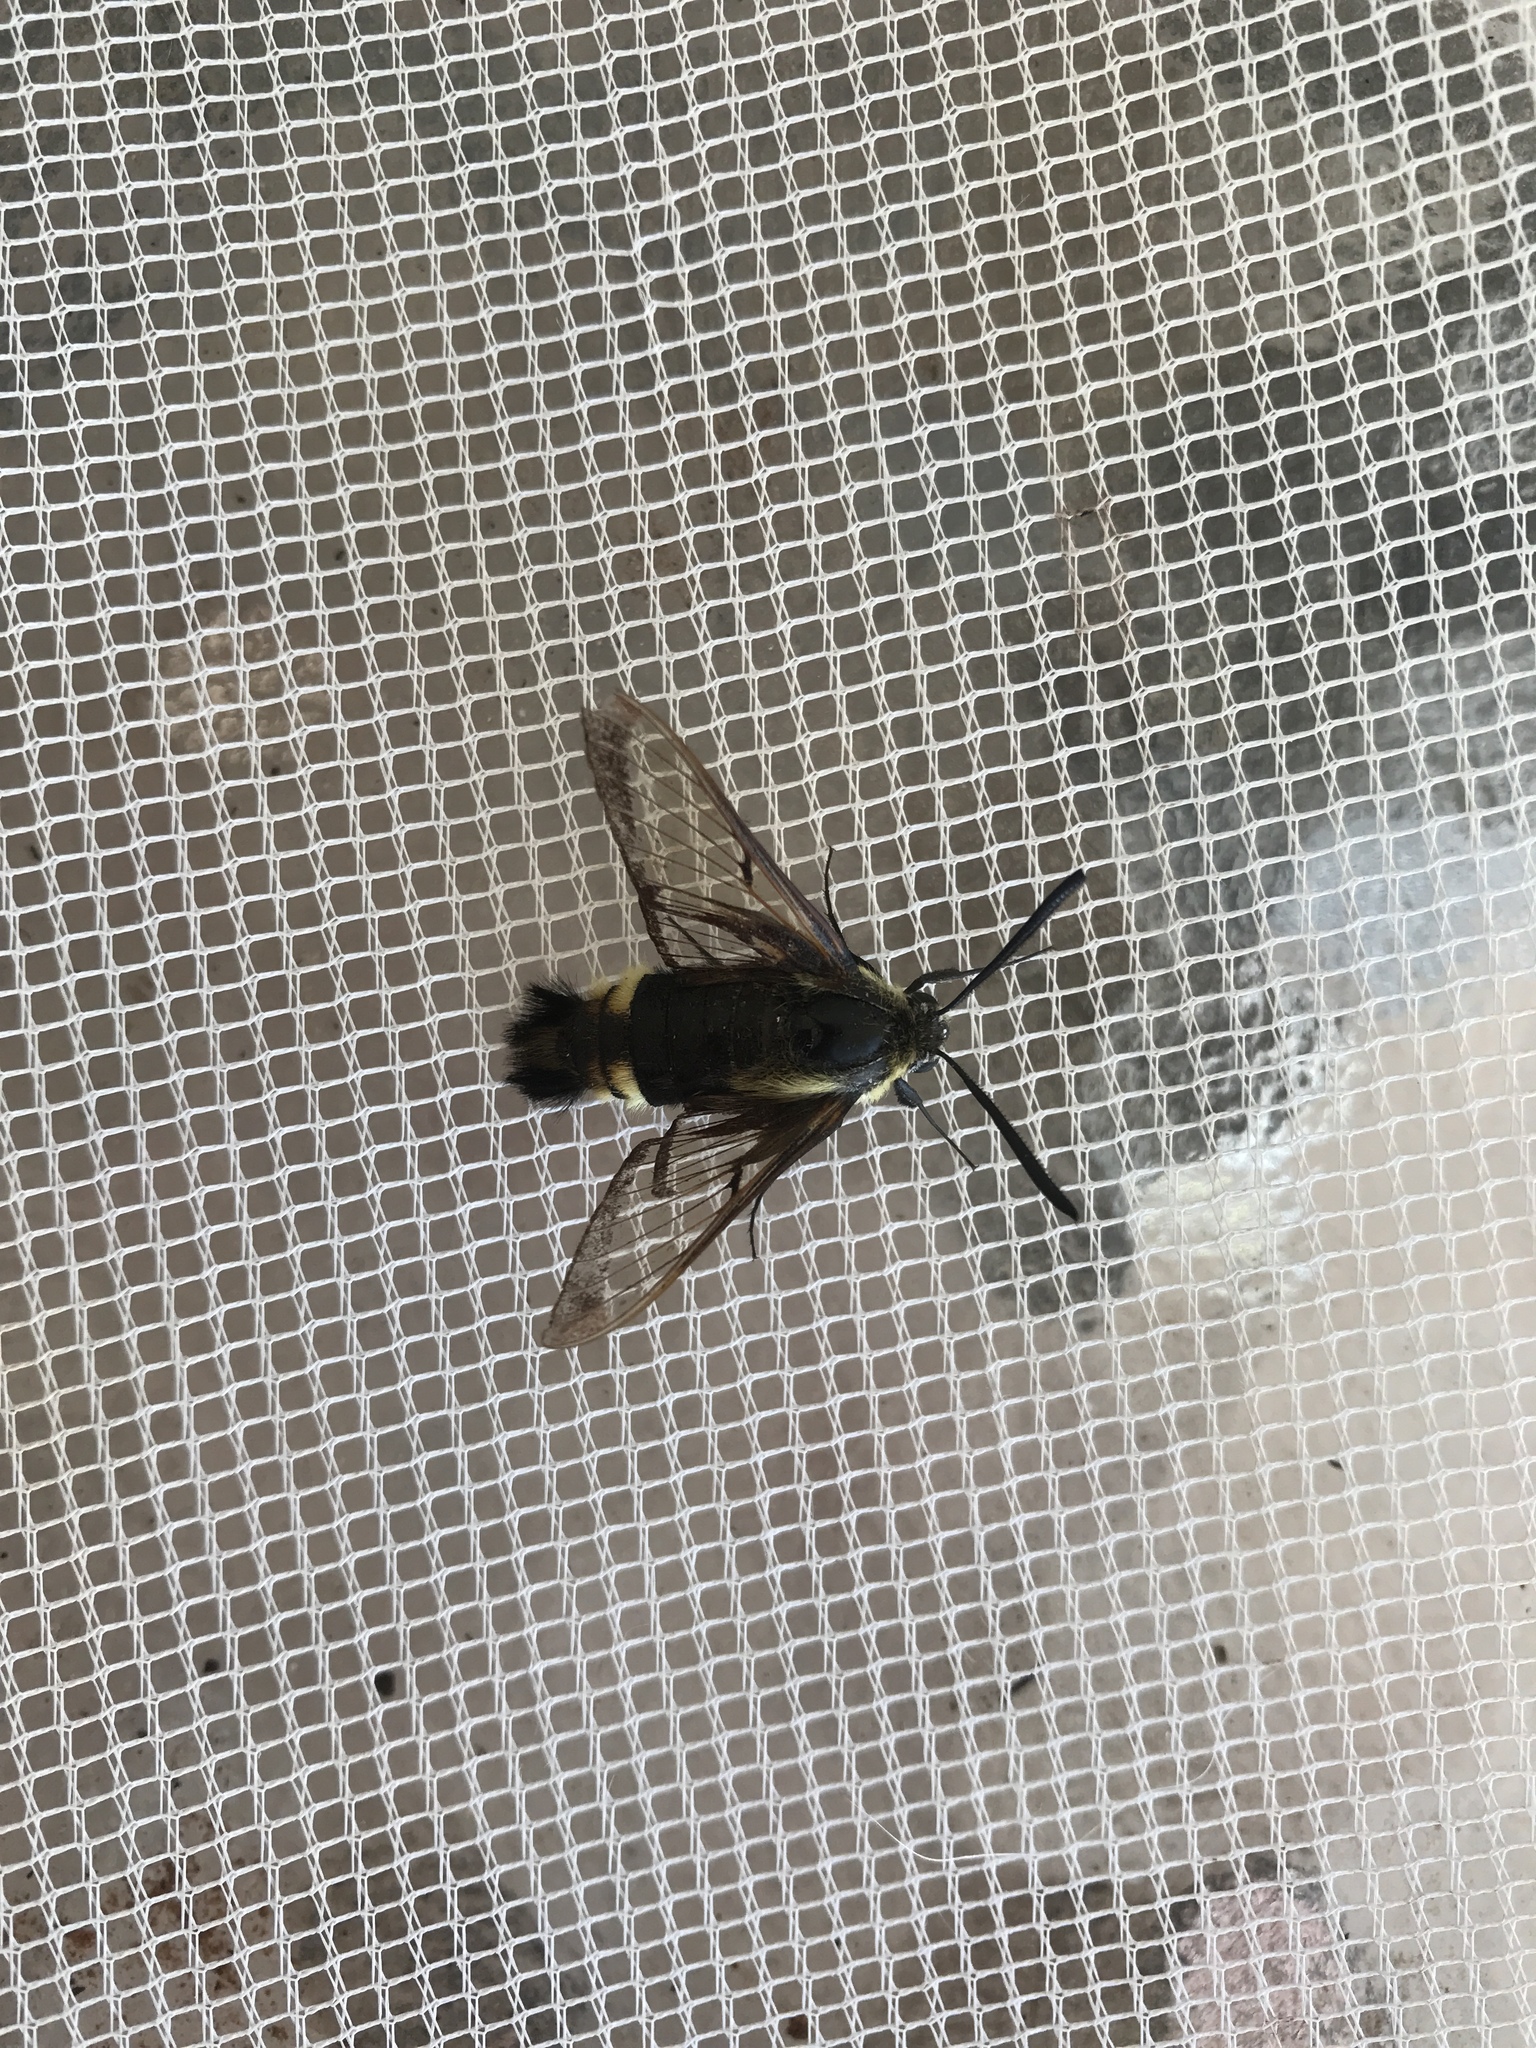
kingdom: Animalia
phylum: Arthropoda
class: Insecta
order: Lepidoptera
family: Sphingidae
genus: Hemaris
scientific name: Hemaris diffinis
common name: Bumblebee moth
